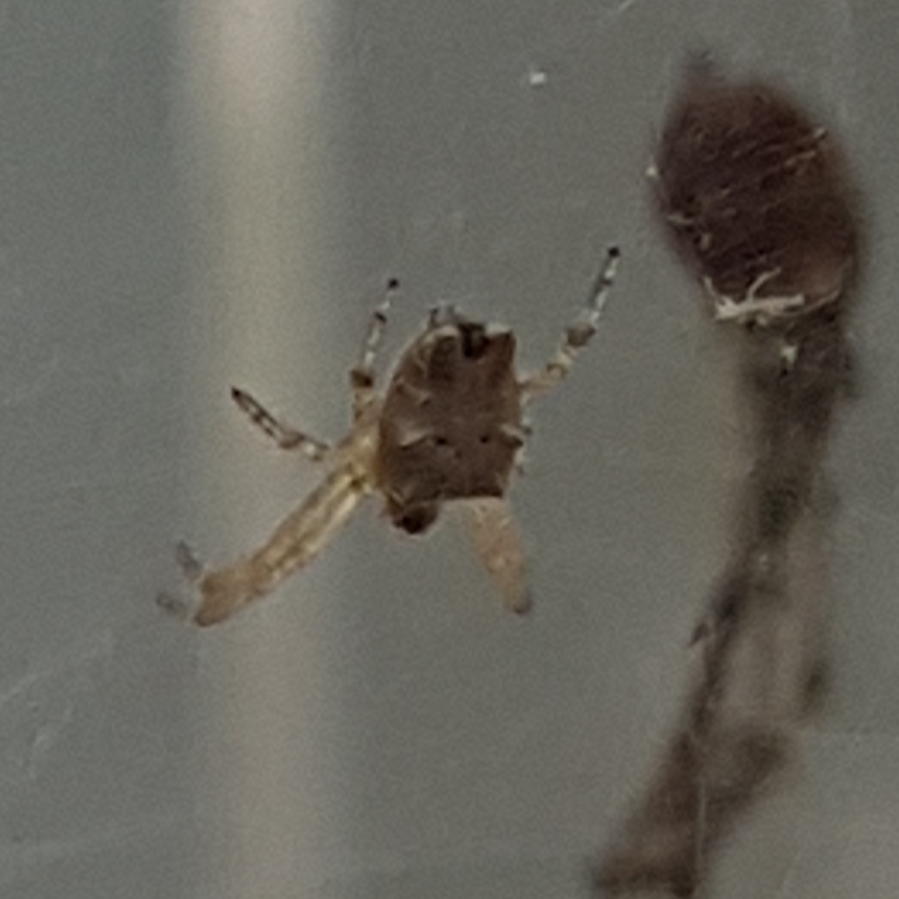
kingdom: Animalia
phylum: Arthropoda
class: Arachnida
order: Araneae
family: Araneidae
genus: Cyrtophora
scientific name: Cyrtophora citricola
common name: Orb weavers
